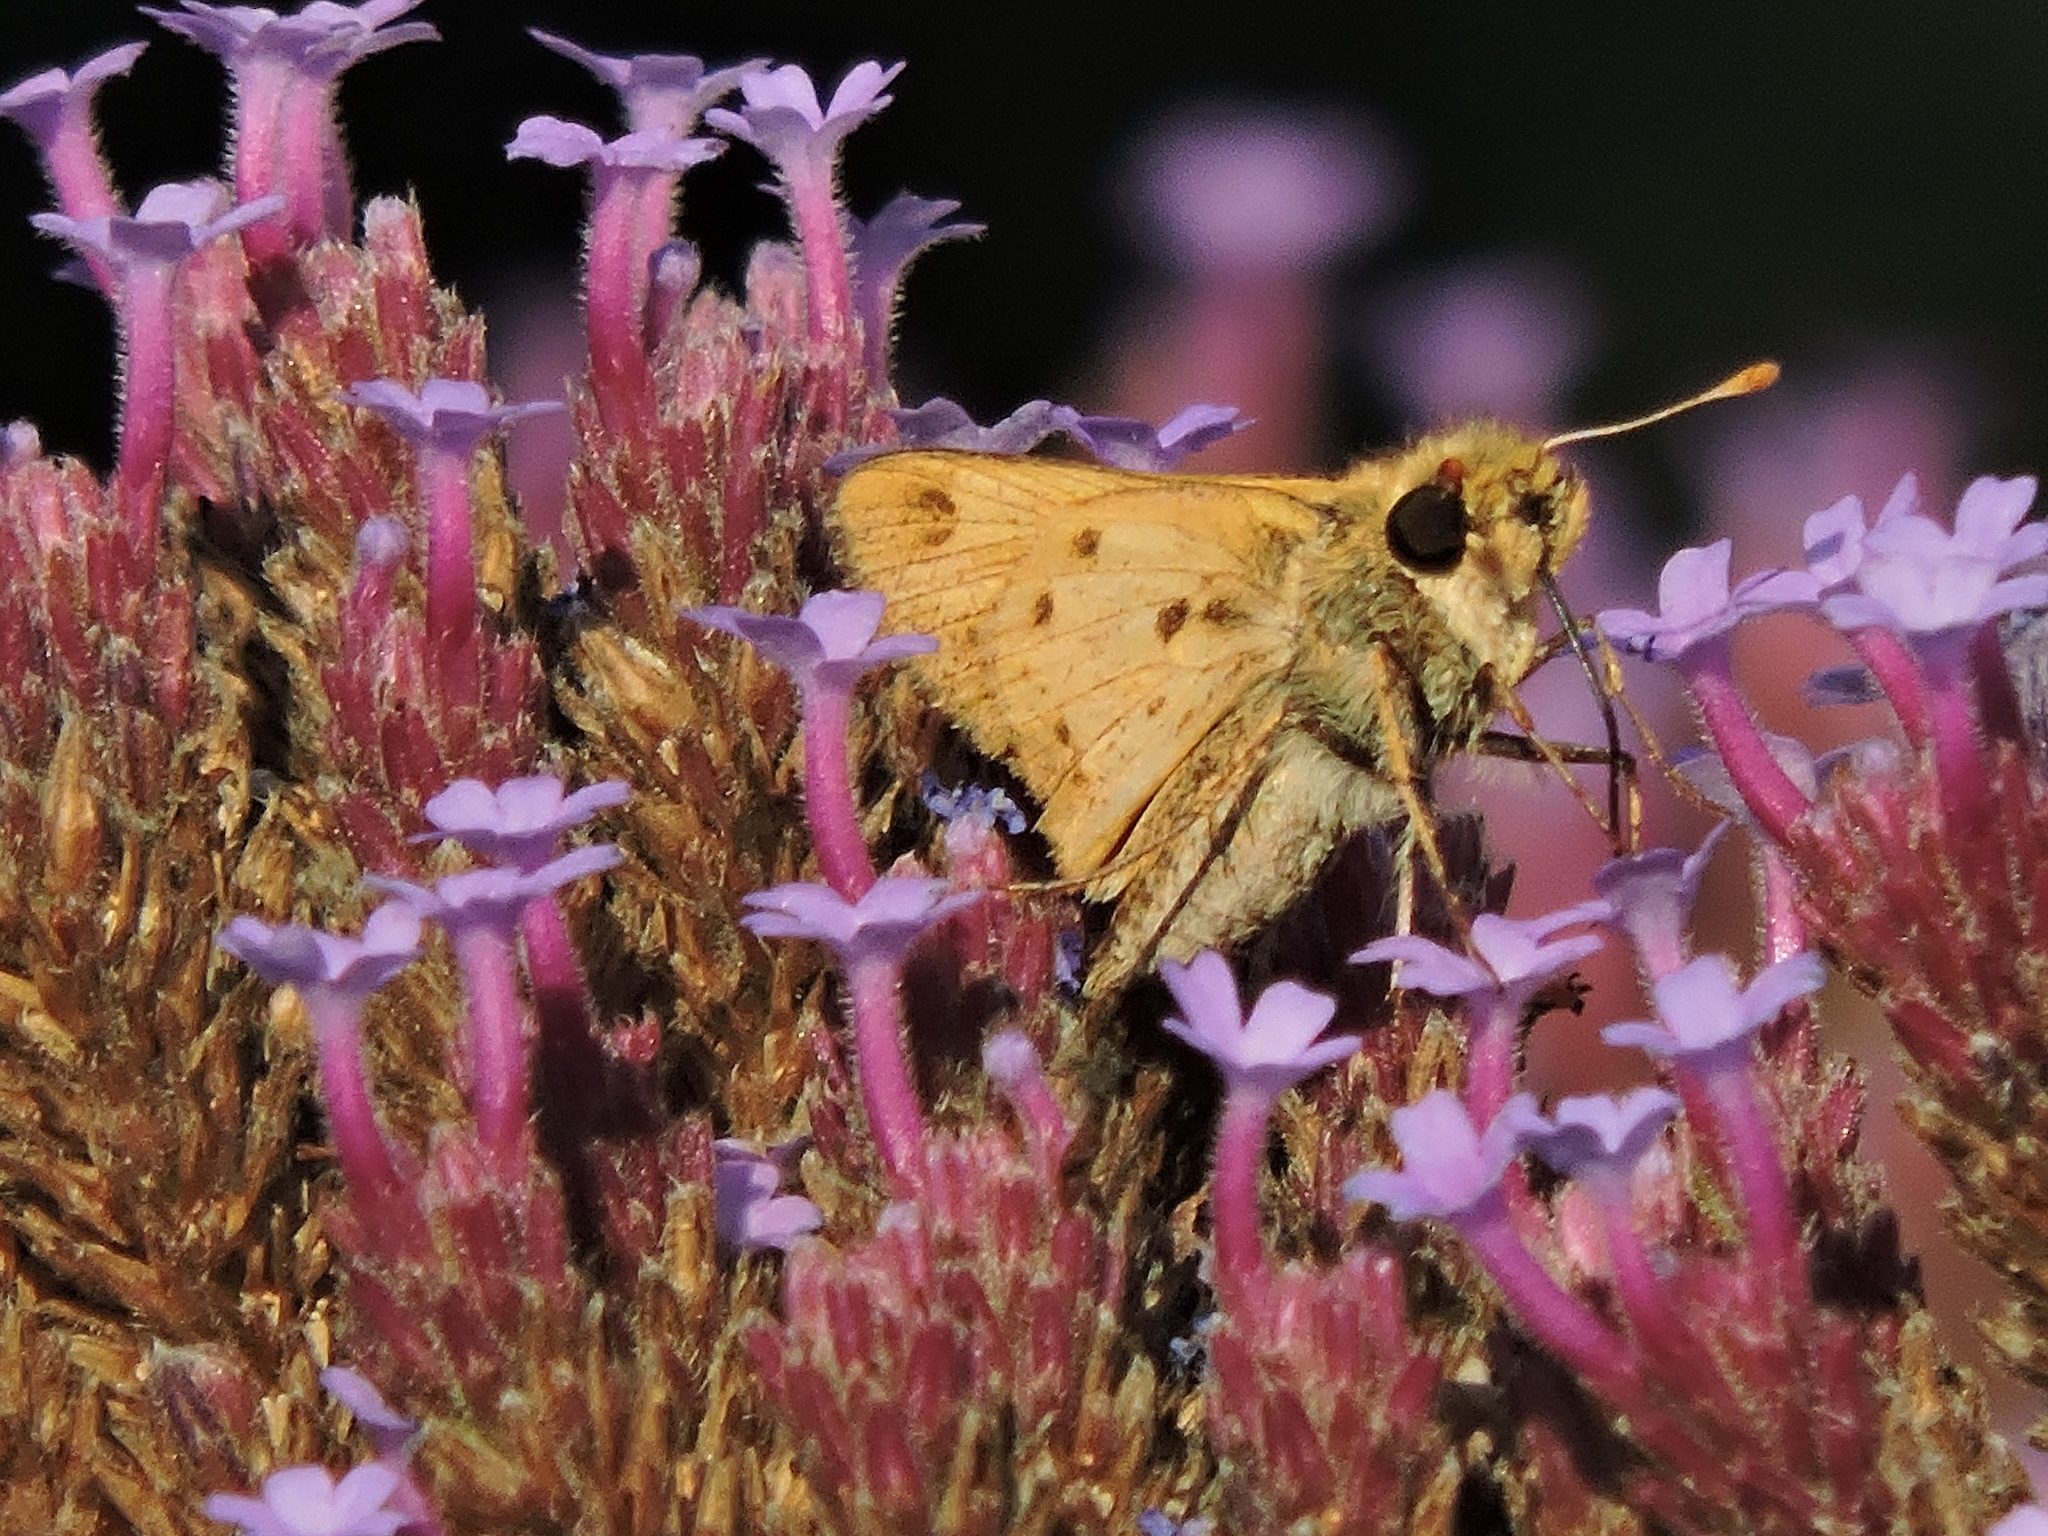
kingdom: Animalia
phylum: Arthropoda
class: Insecta
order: Lepidoptera
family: Hesperiidae
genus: Hylephila
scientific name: Hylephila phyleus
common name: Fiery skipper
